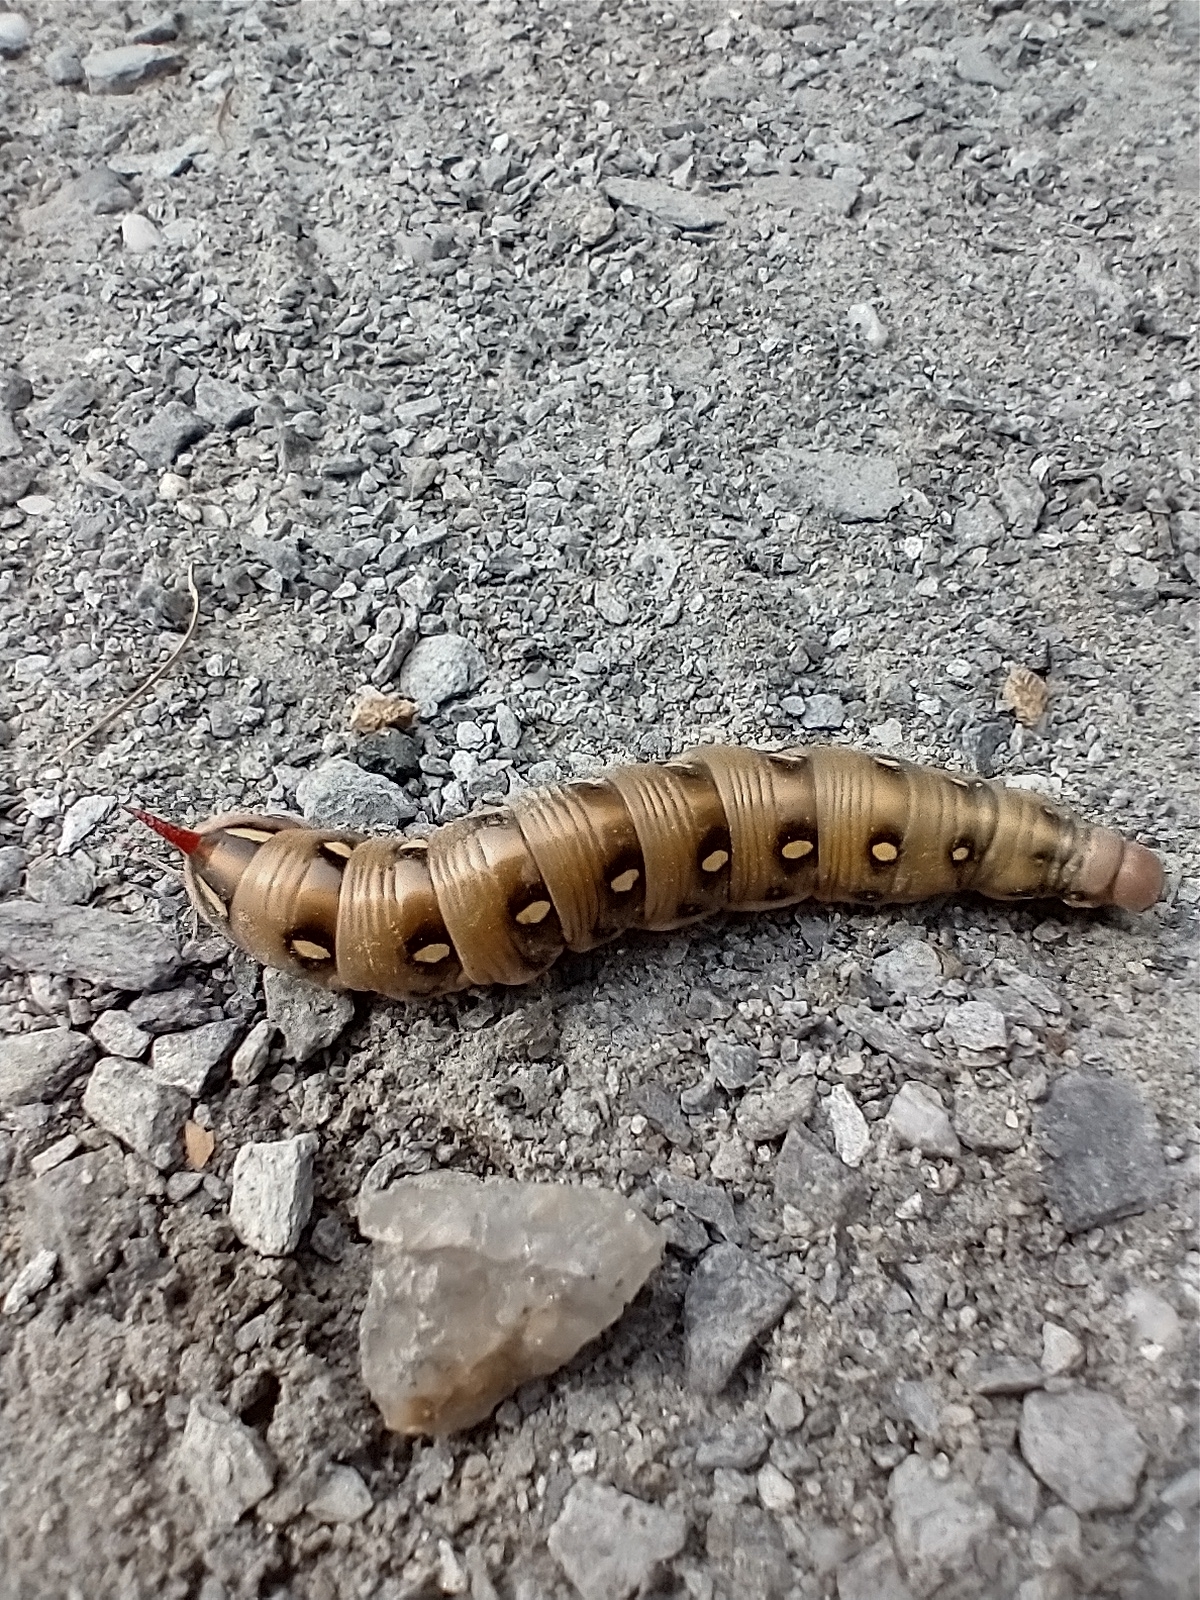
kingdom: Animalia
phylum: Arthropoda
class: Insecta
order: Lepidoptera
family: Sphingidae
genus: Hyles
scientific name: Hyles gallii
